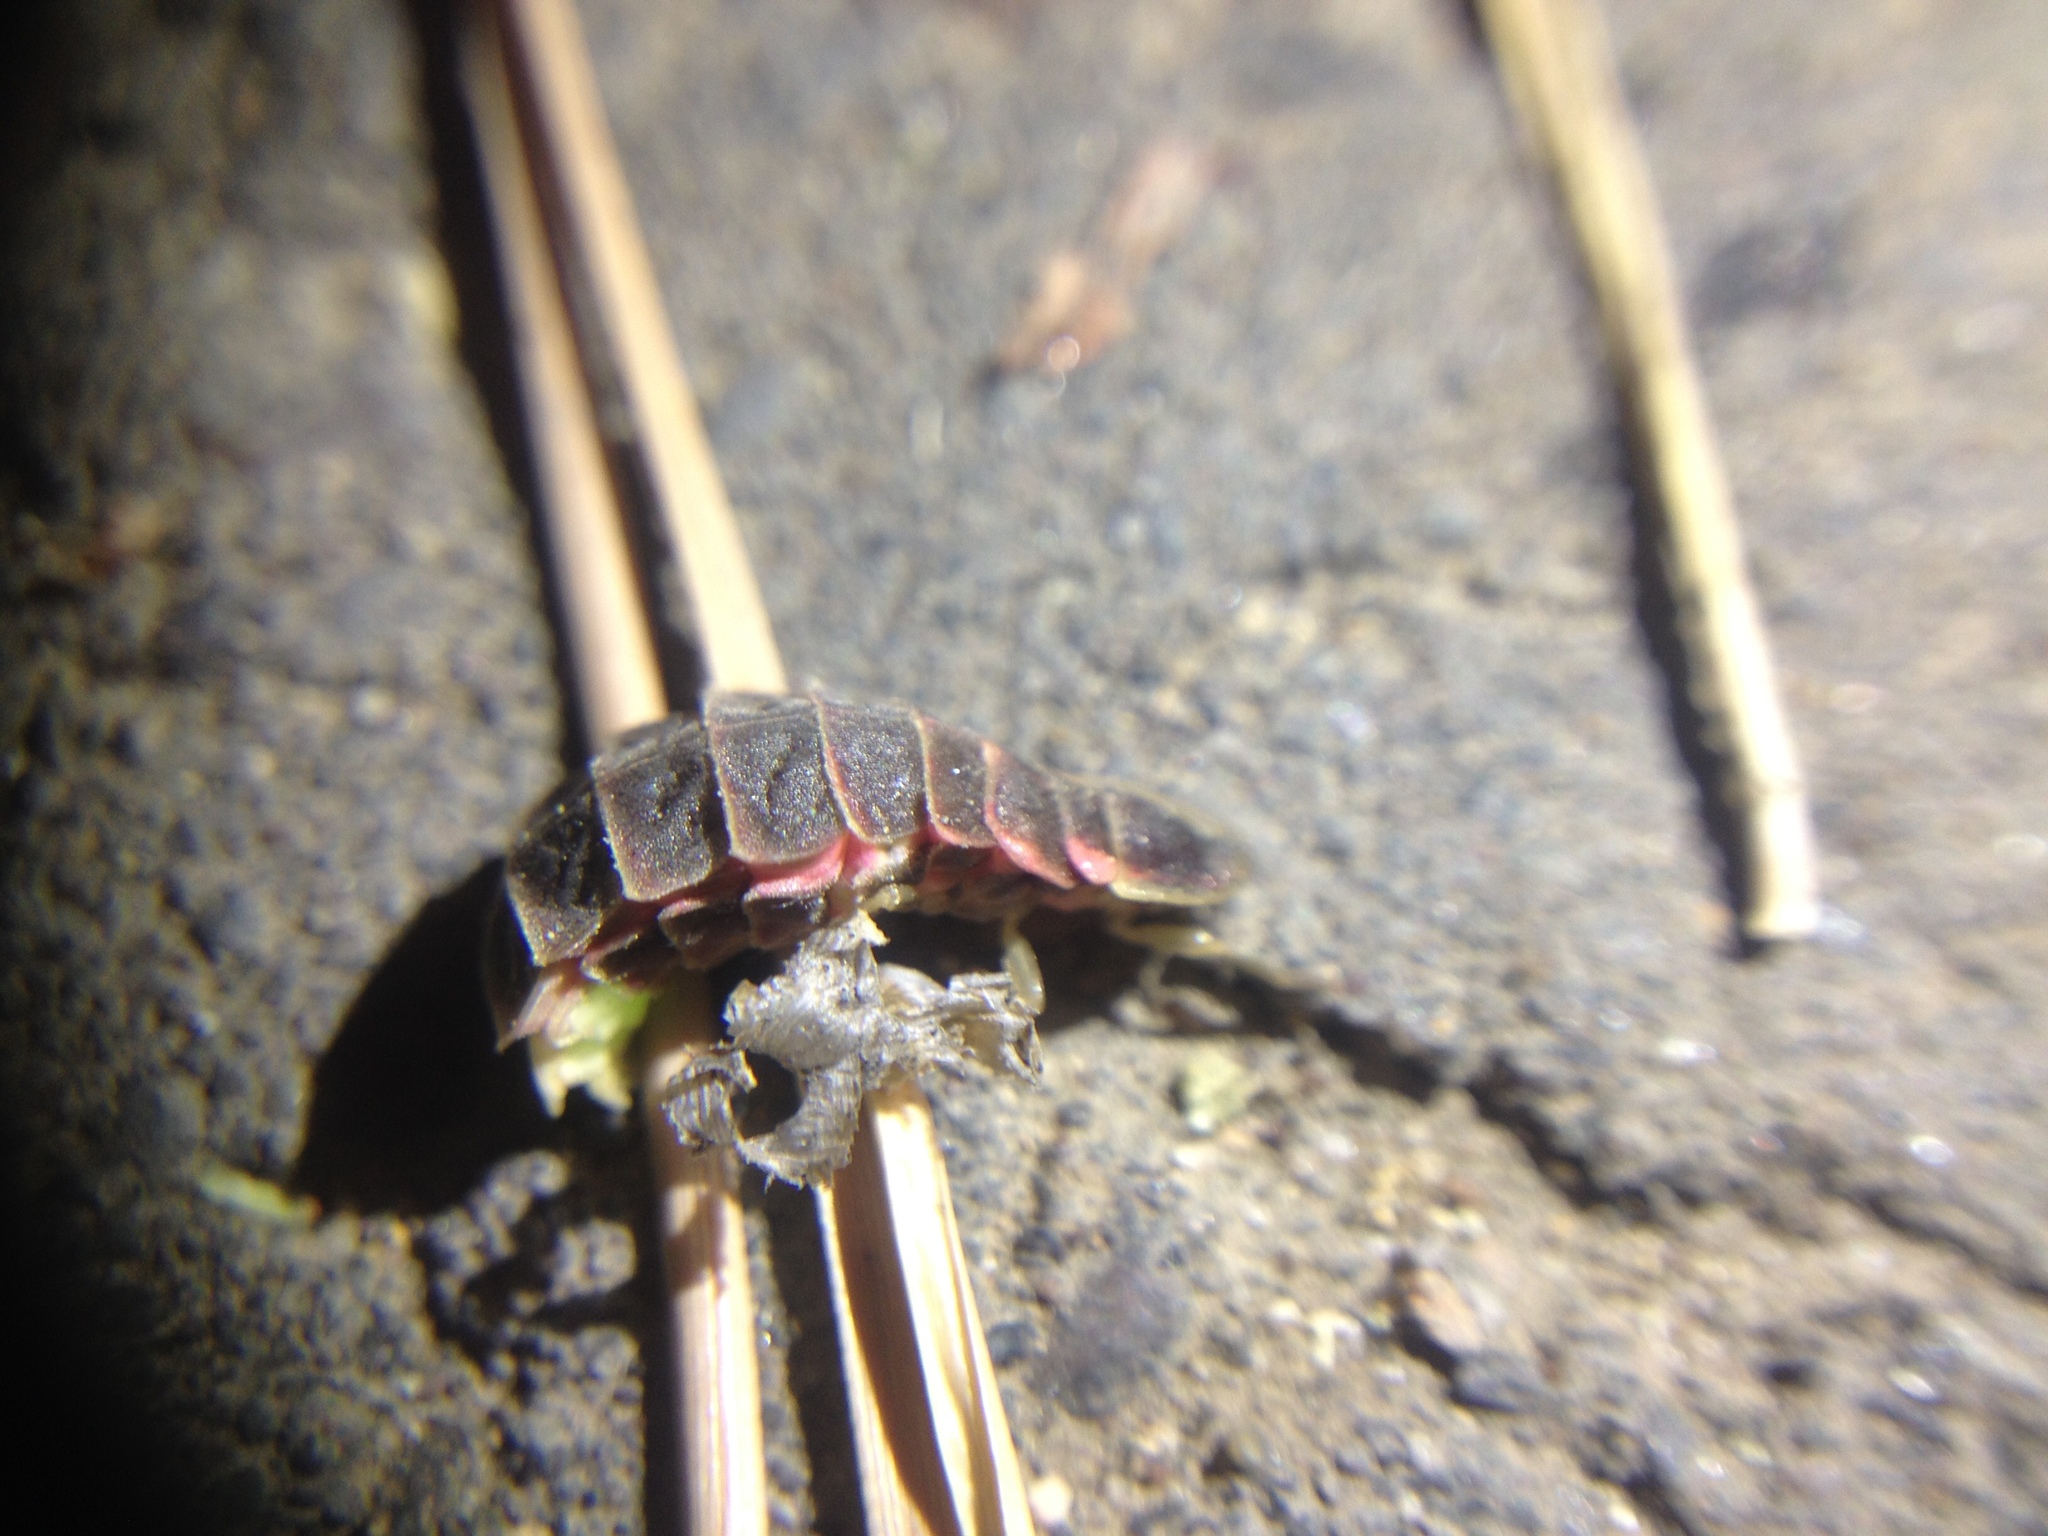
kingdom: Animalia
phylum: Arthropoda
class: Insecta
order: Coleoptera
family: Lampyridae
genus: Lampyris
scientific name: Lampyris noctiluca
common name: Glow-worm
